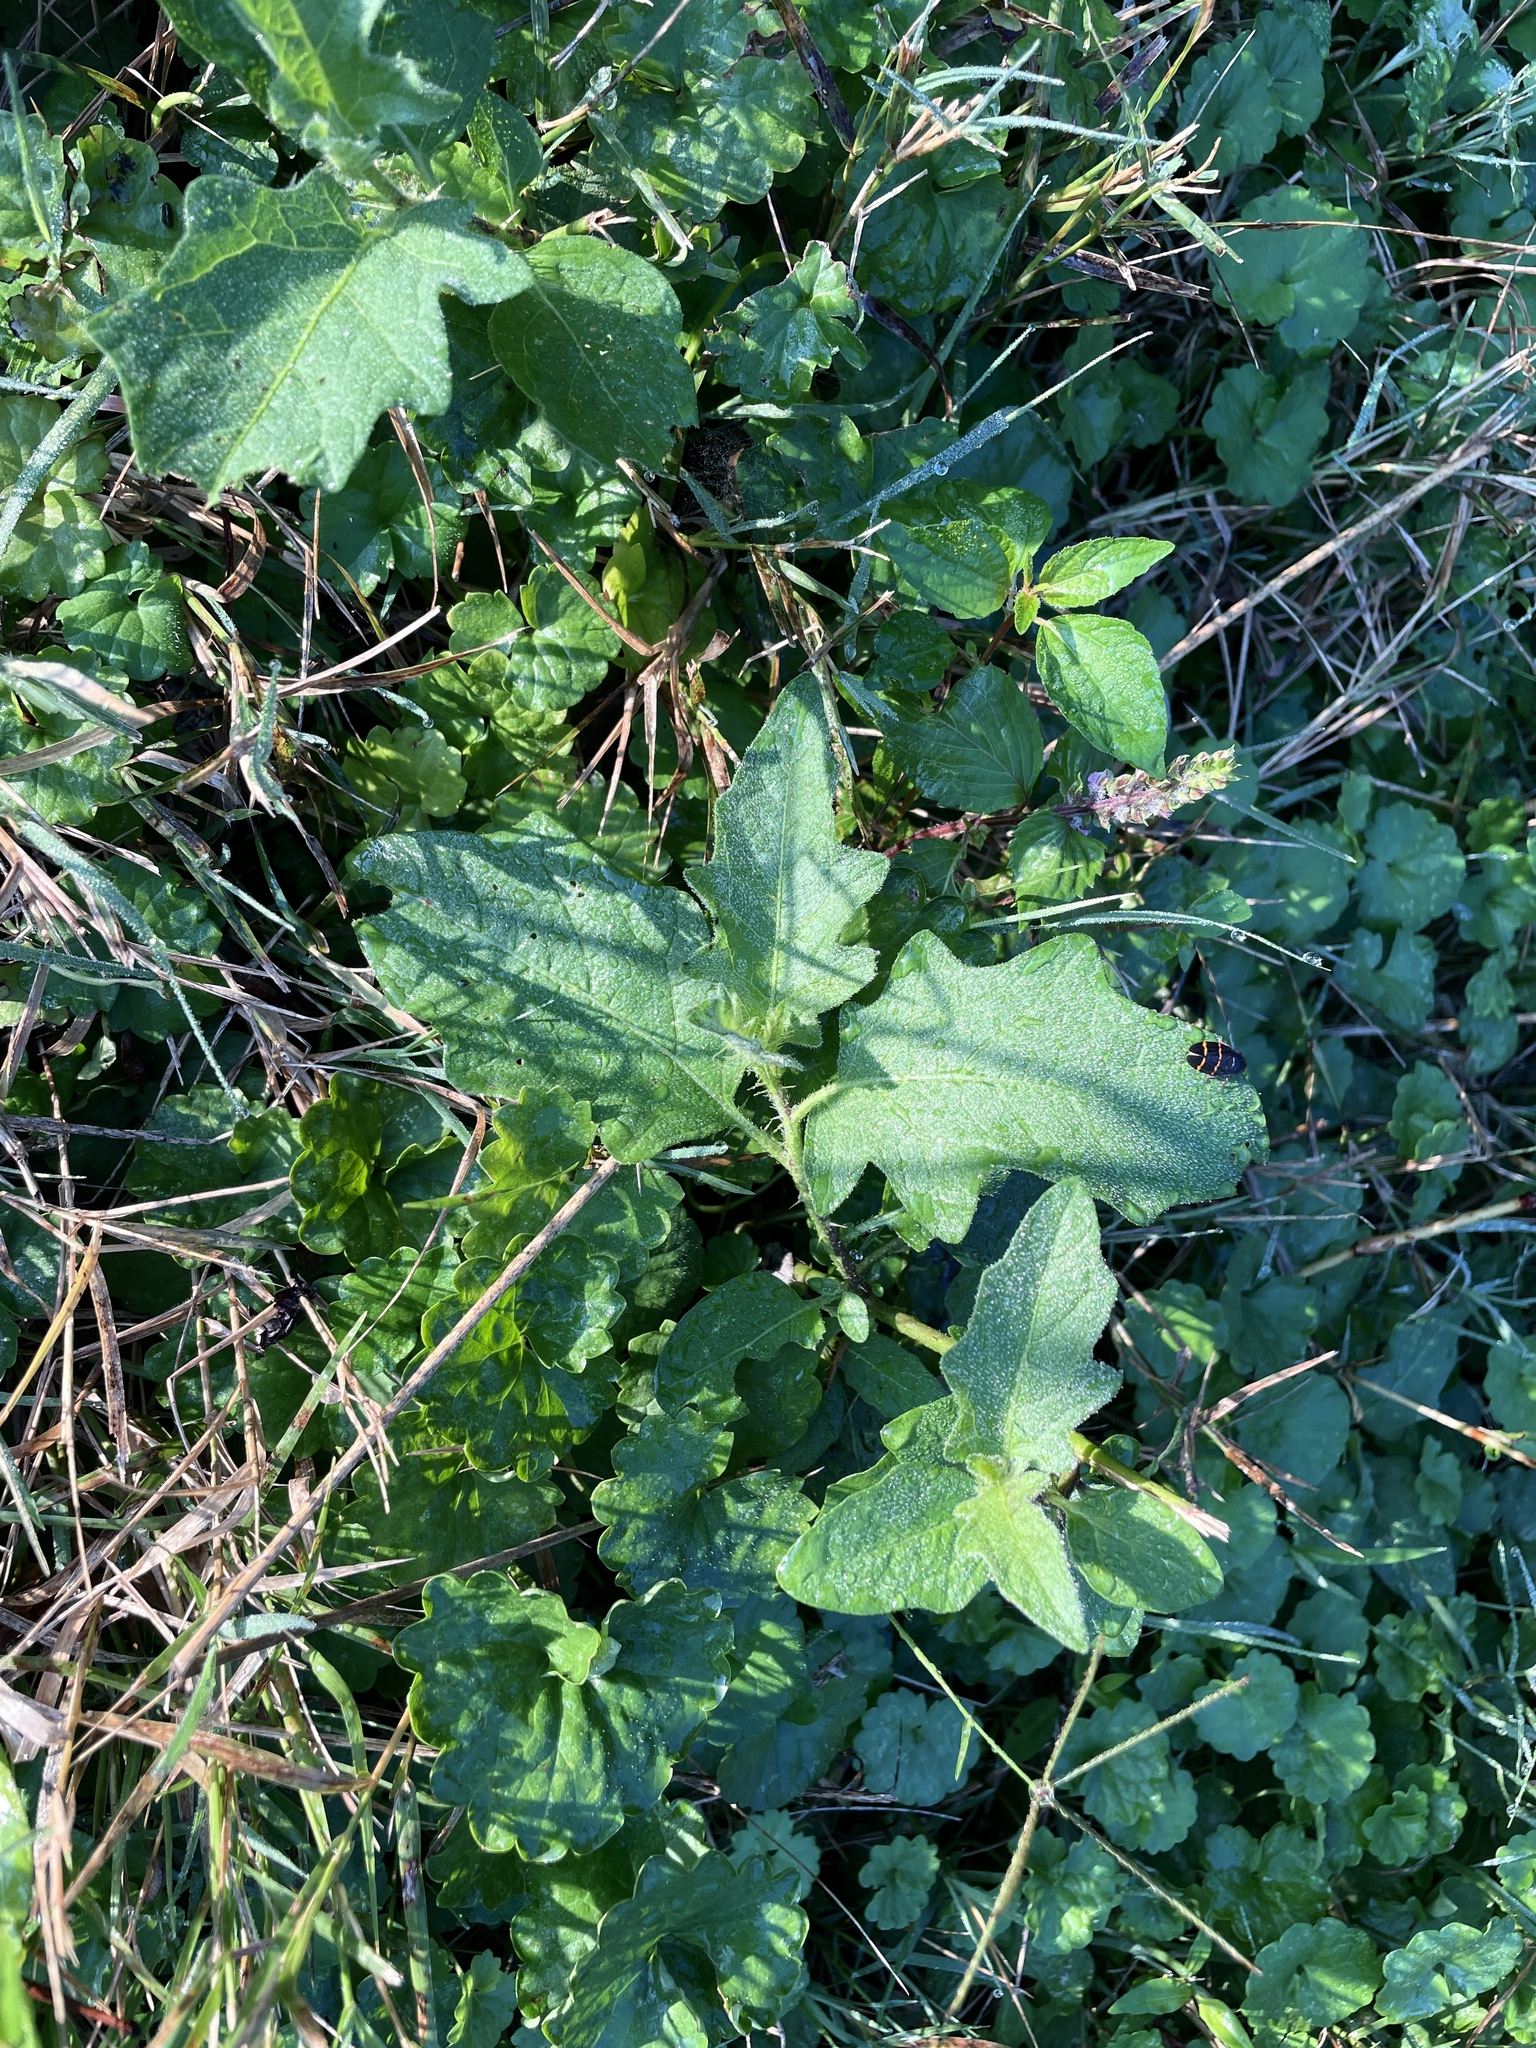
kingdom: Plantae
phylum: Tracheophyta
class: Magnoliopsida
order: Solanales
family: Solanaceae
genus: Solanum
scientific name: Solanum carolinense
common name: Horse-nettle
